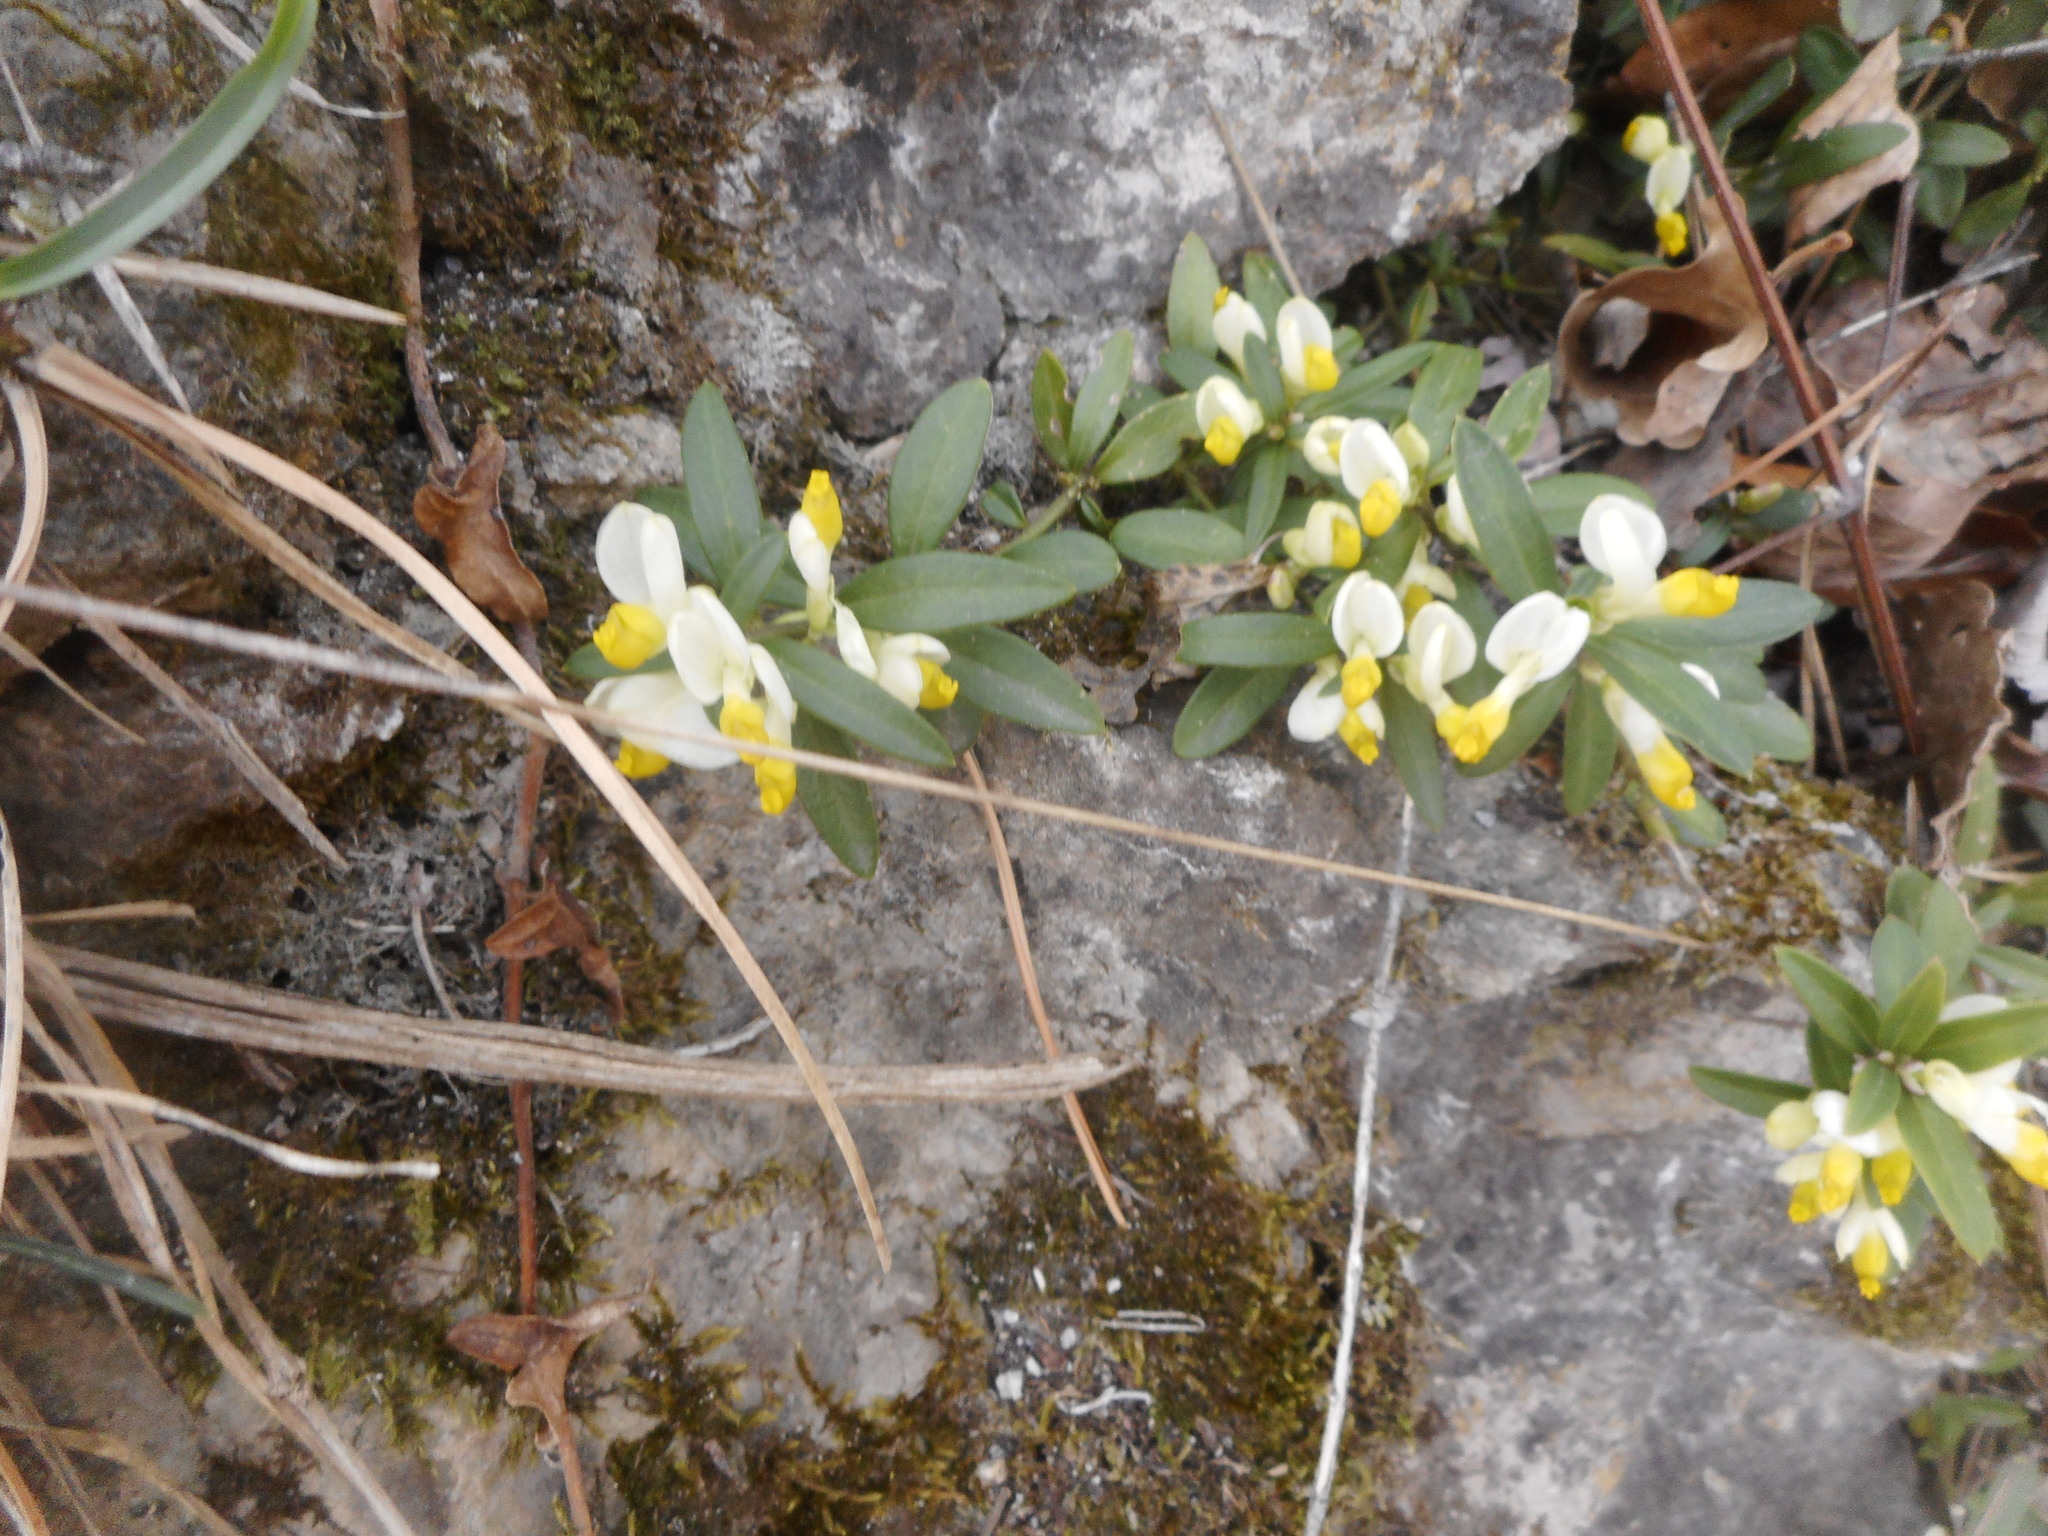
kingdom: Plantae
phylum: Tracheophyta
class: Magnoliopsida
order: Fabales
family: Polygalaceae
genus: Polygaloides
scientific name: Polygaloides chamaebuxus
